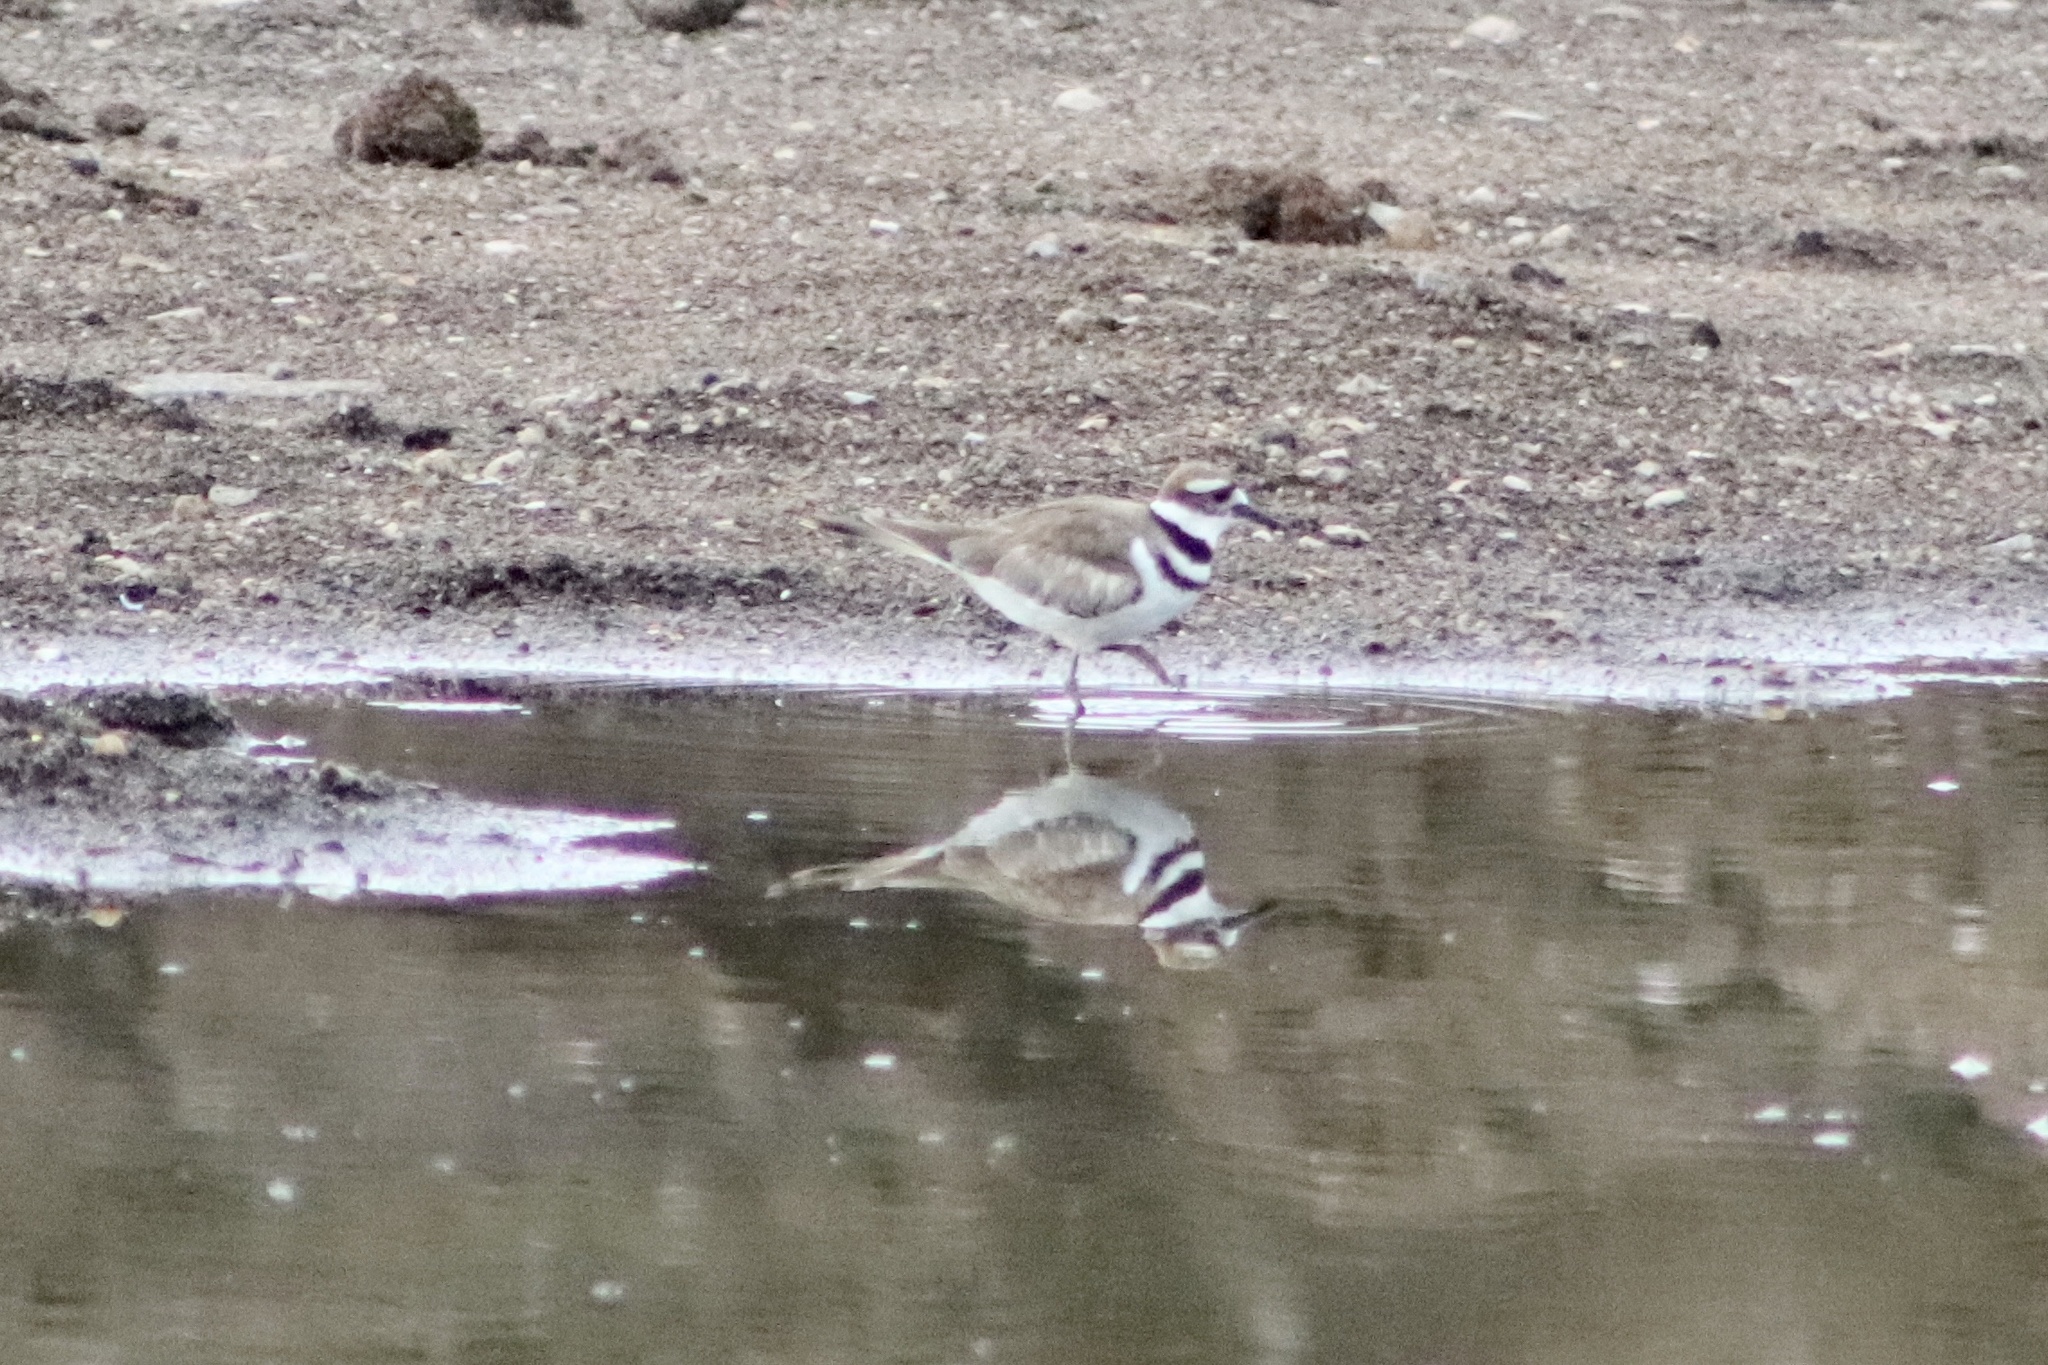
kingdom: Animalia
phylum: Chordata
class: Aves
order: Charadriiformes
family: Charadriidae
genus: Charadrius
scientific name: Charadrius vociferus
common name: Killdeer
